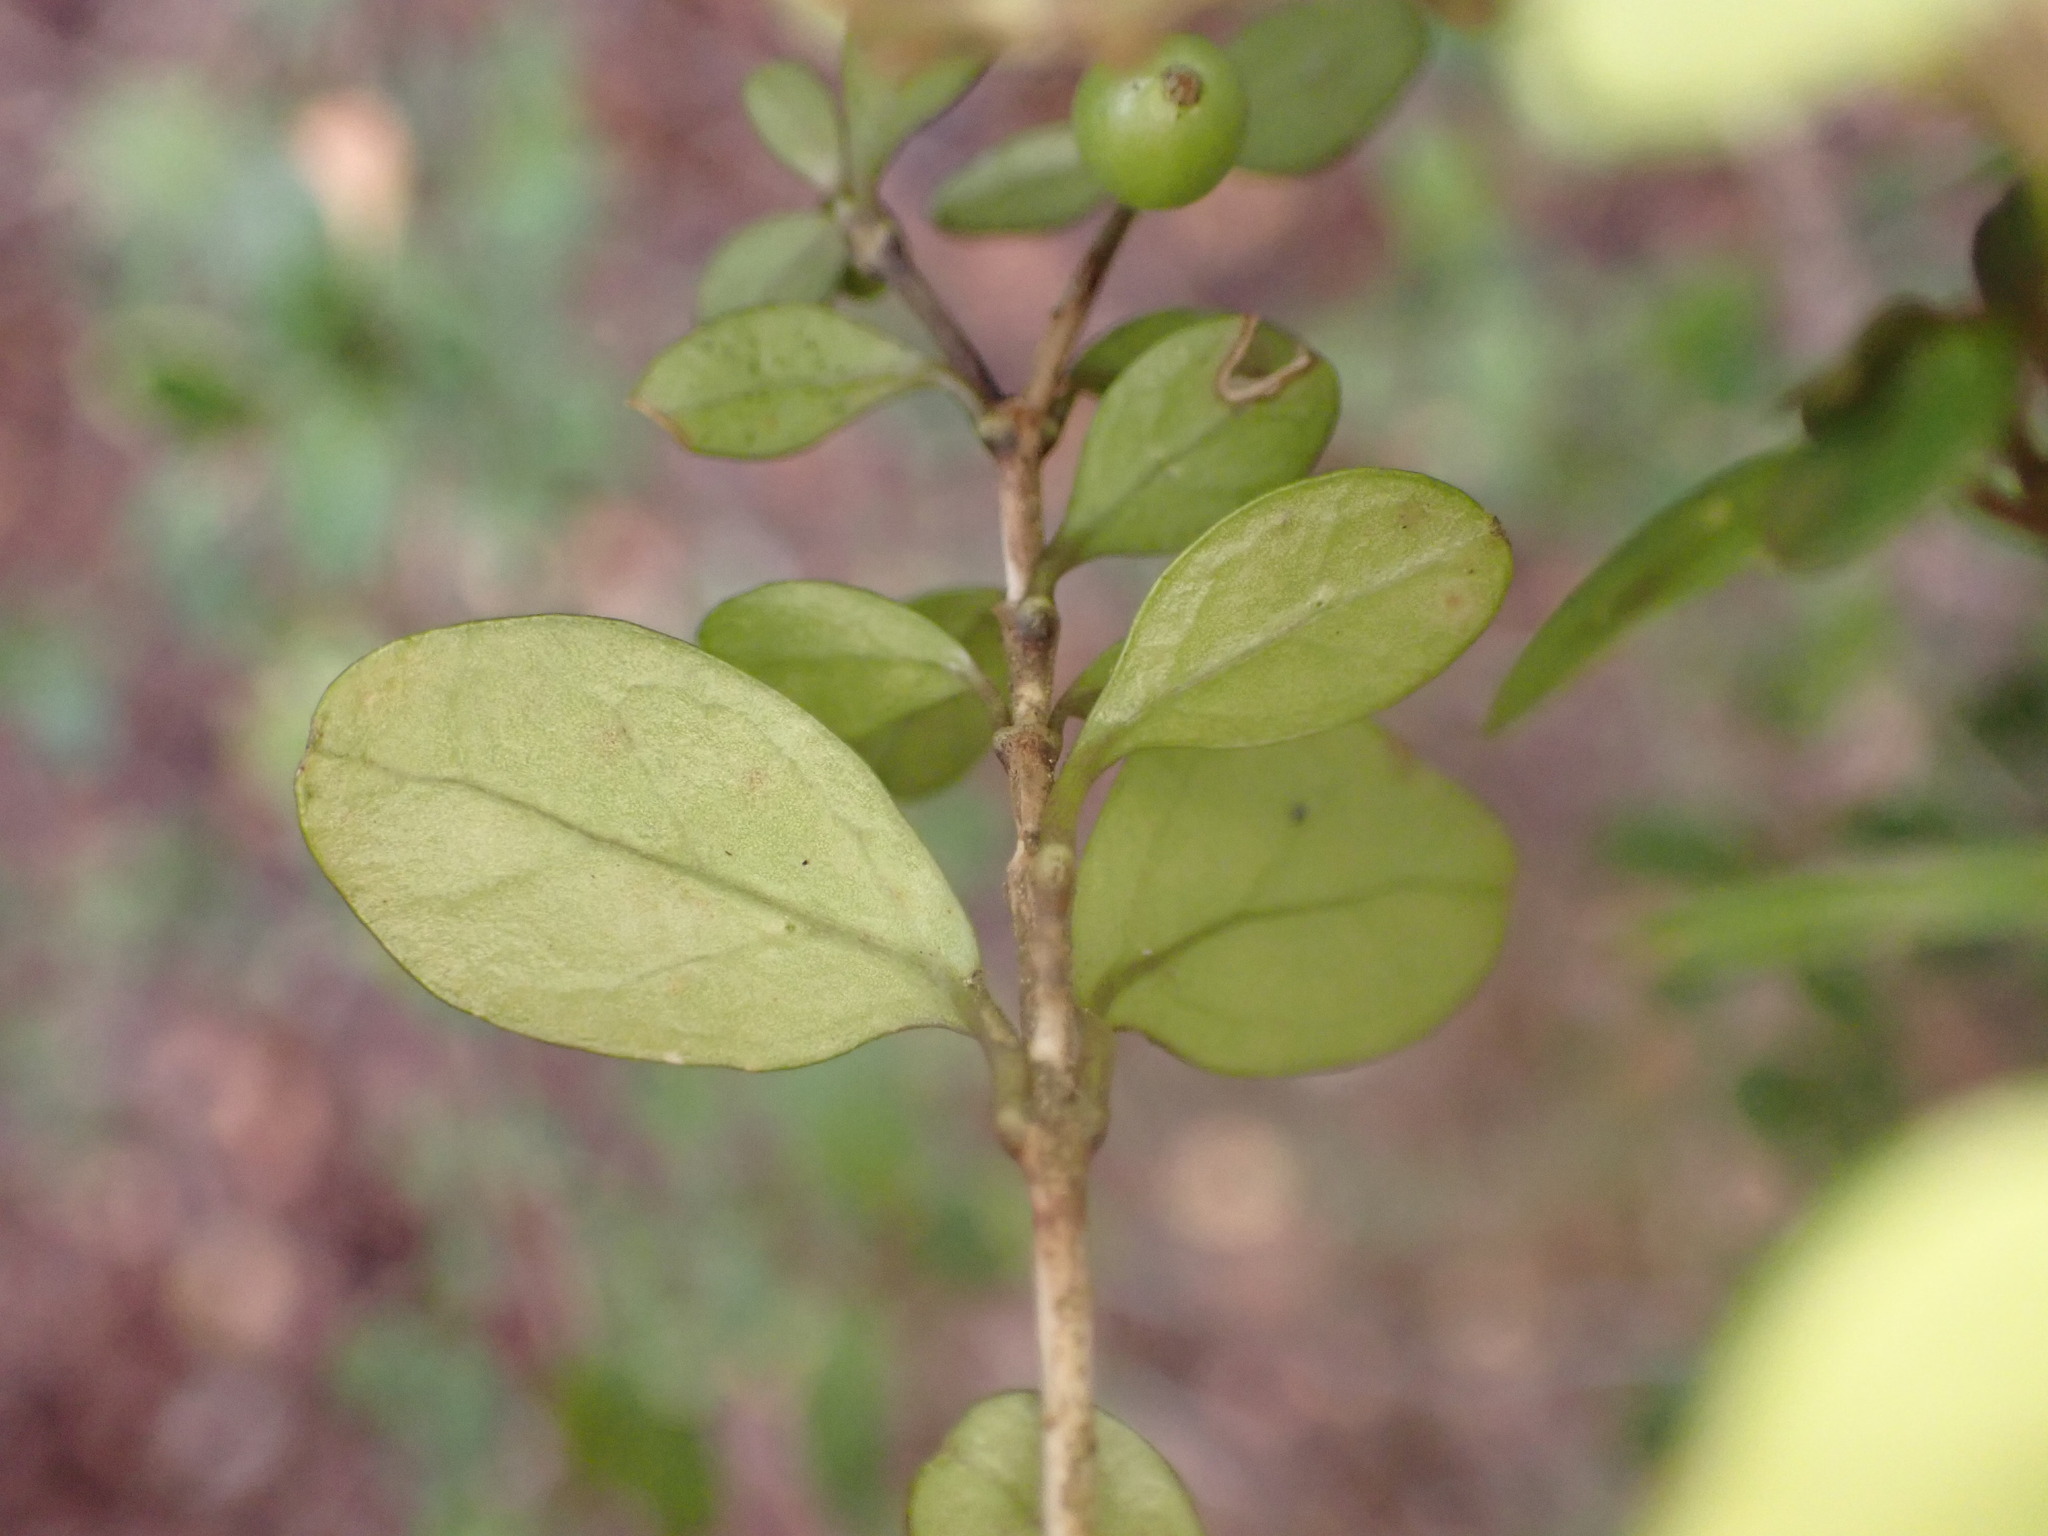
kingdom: Plantae
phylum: Tracheophyta
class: Magnoliopsida
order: Gentianales
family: Rubiaceae
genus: Coprosma
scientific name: Coprosma colensoi
